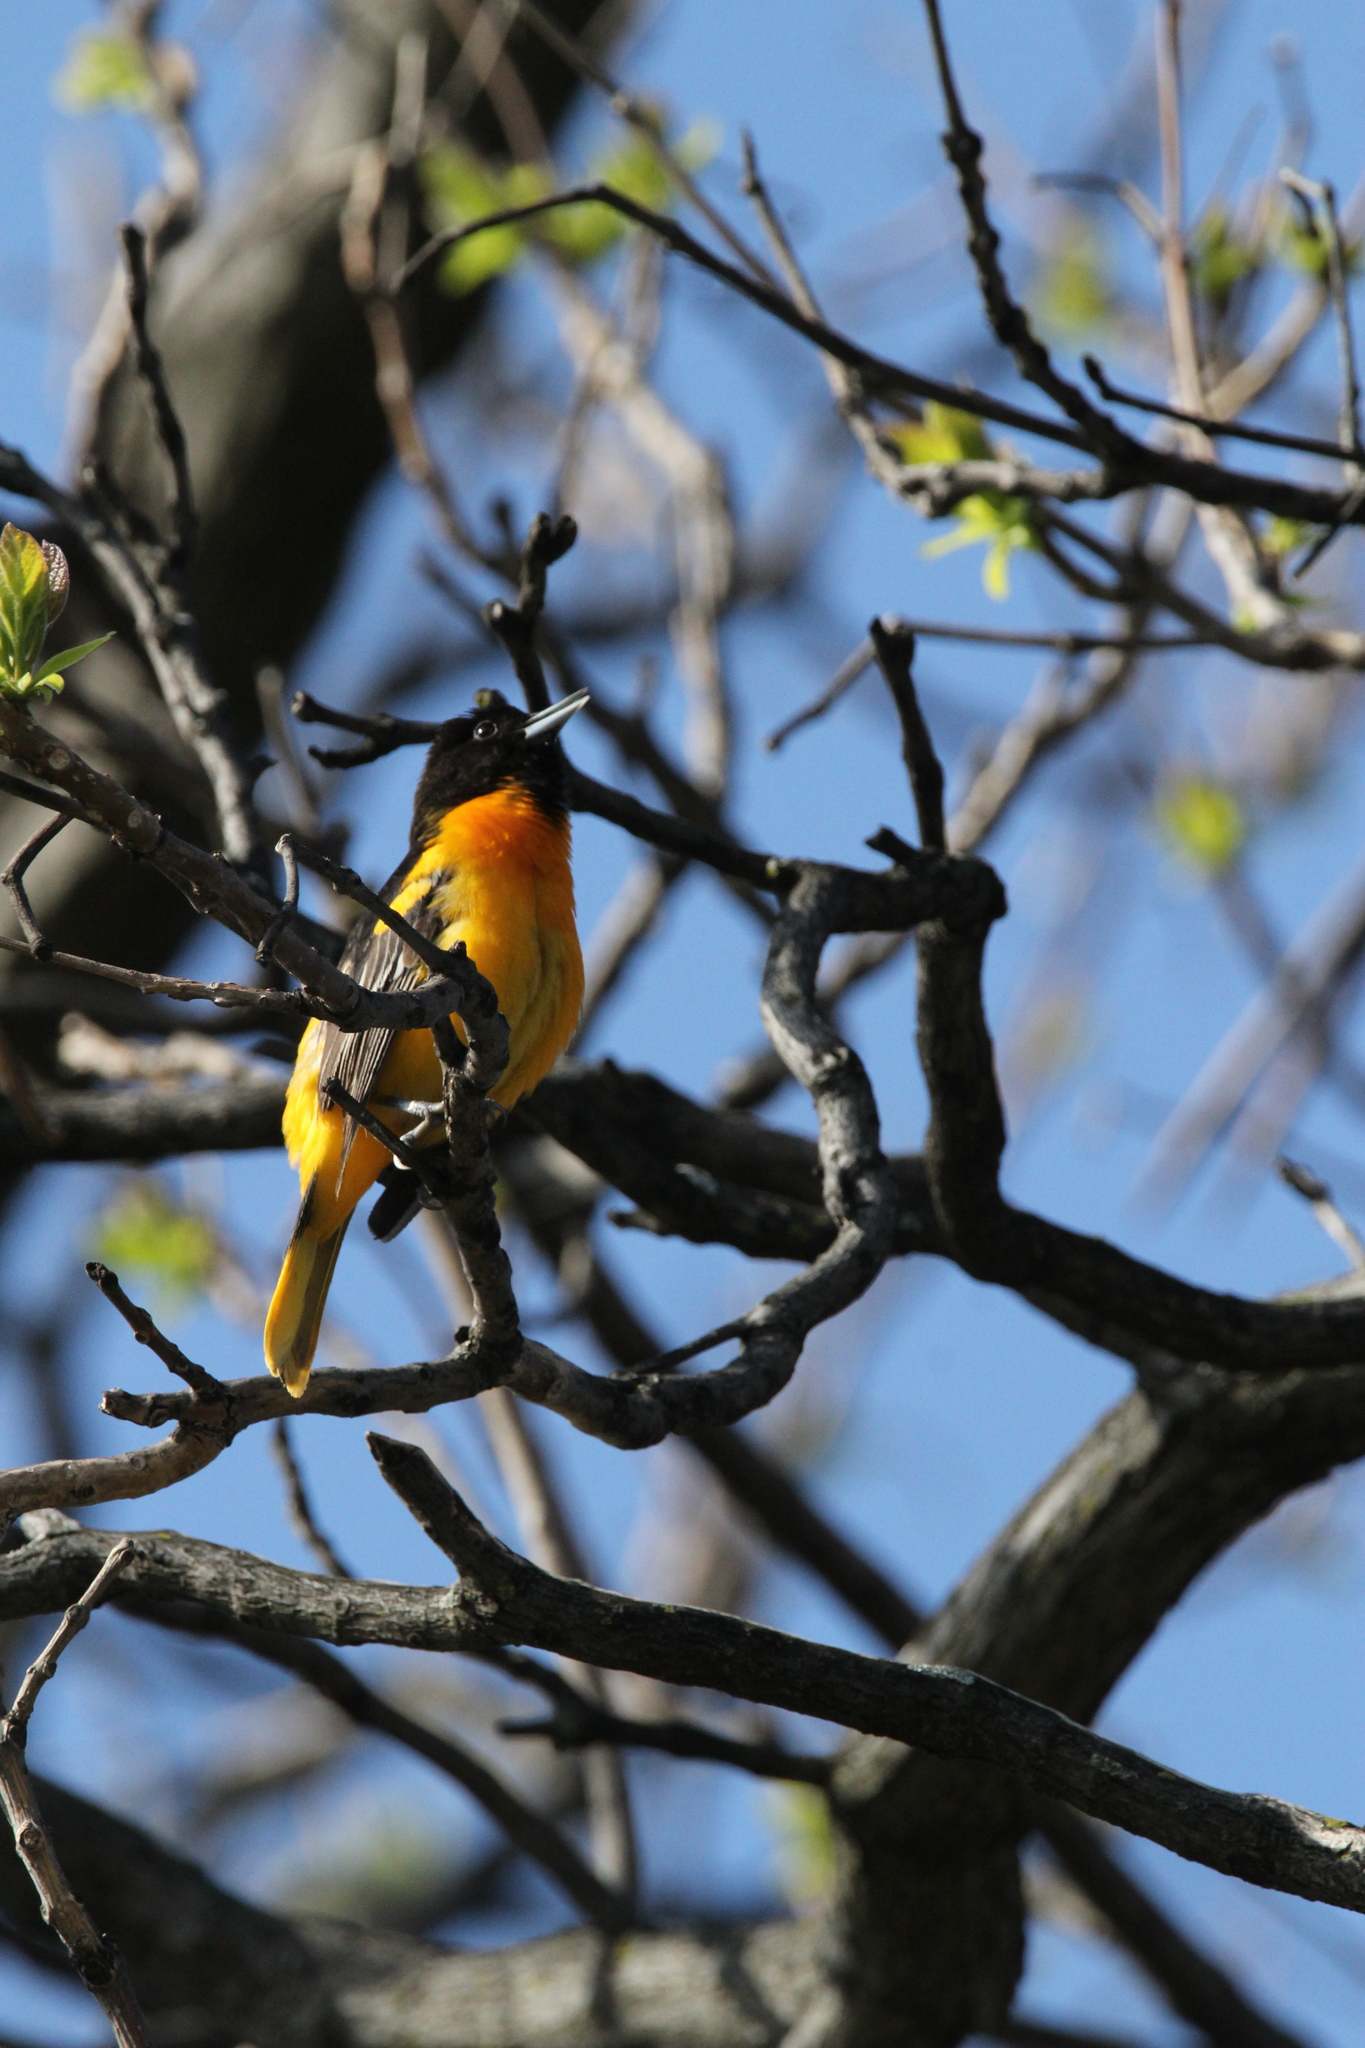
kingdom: Animalia
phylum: Chordata
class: Aves
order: Passeriformes
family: Icteridae
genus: Icterus
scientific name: Icterus galbula
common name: Baltimore oriole
